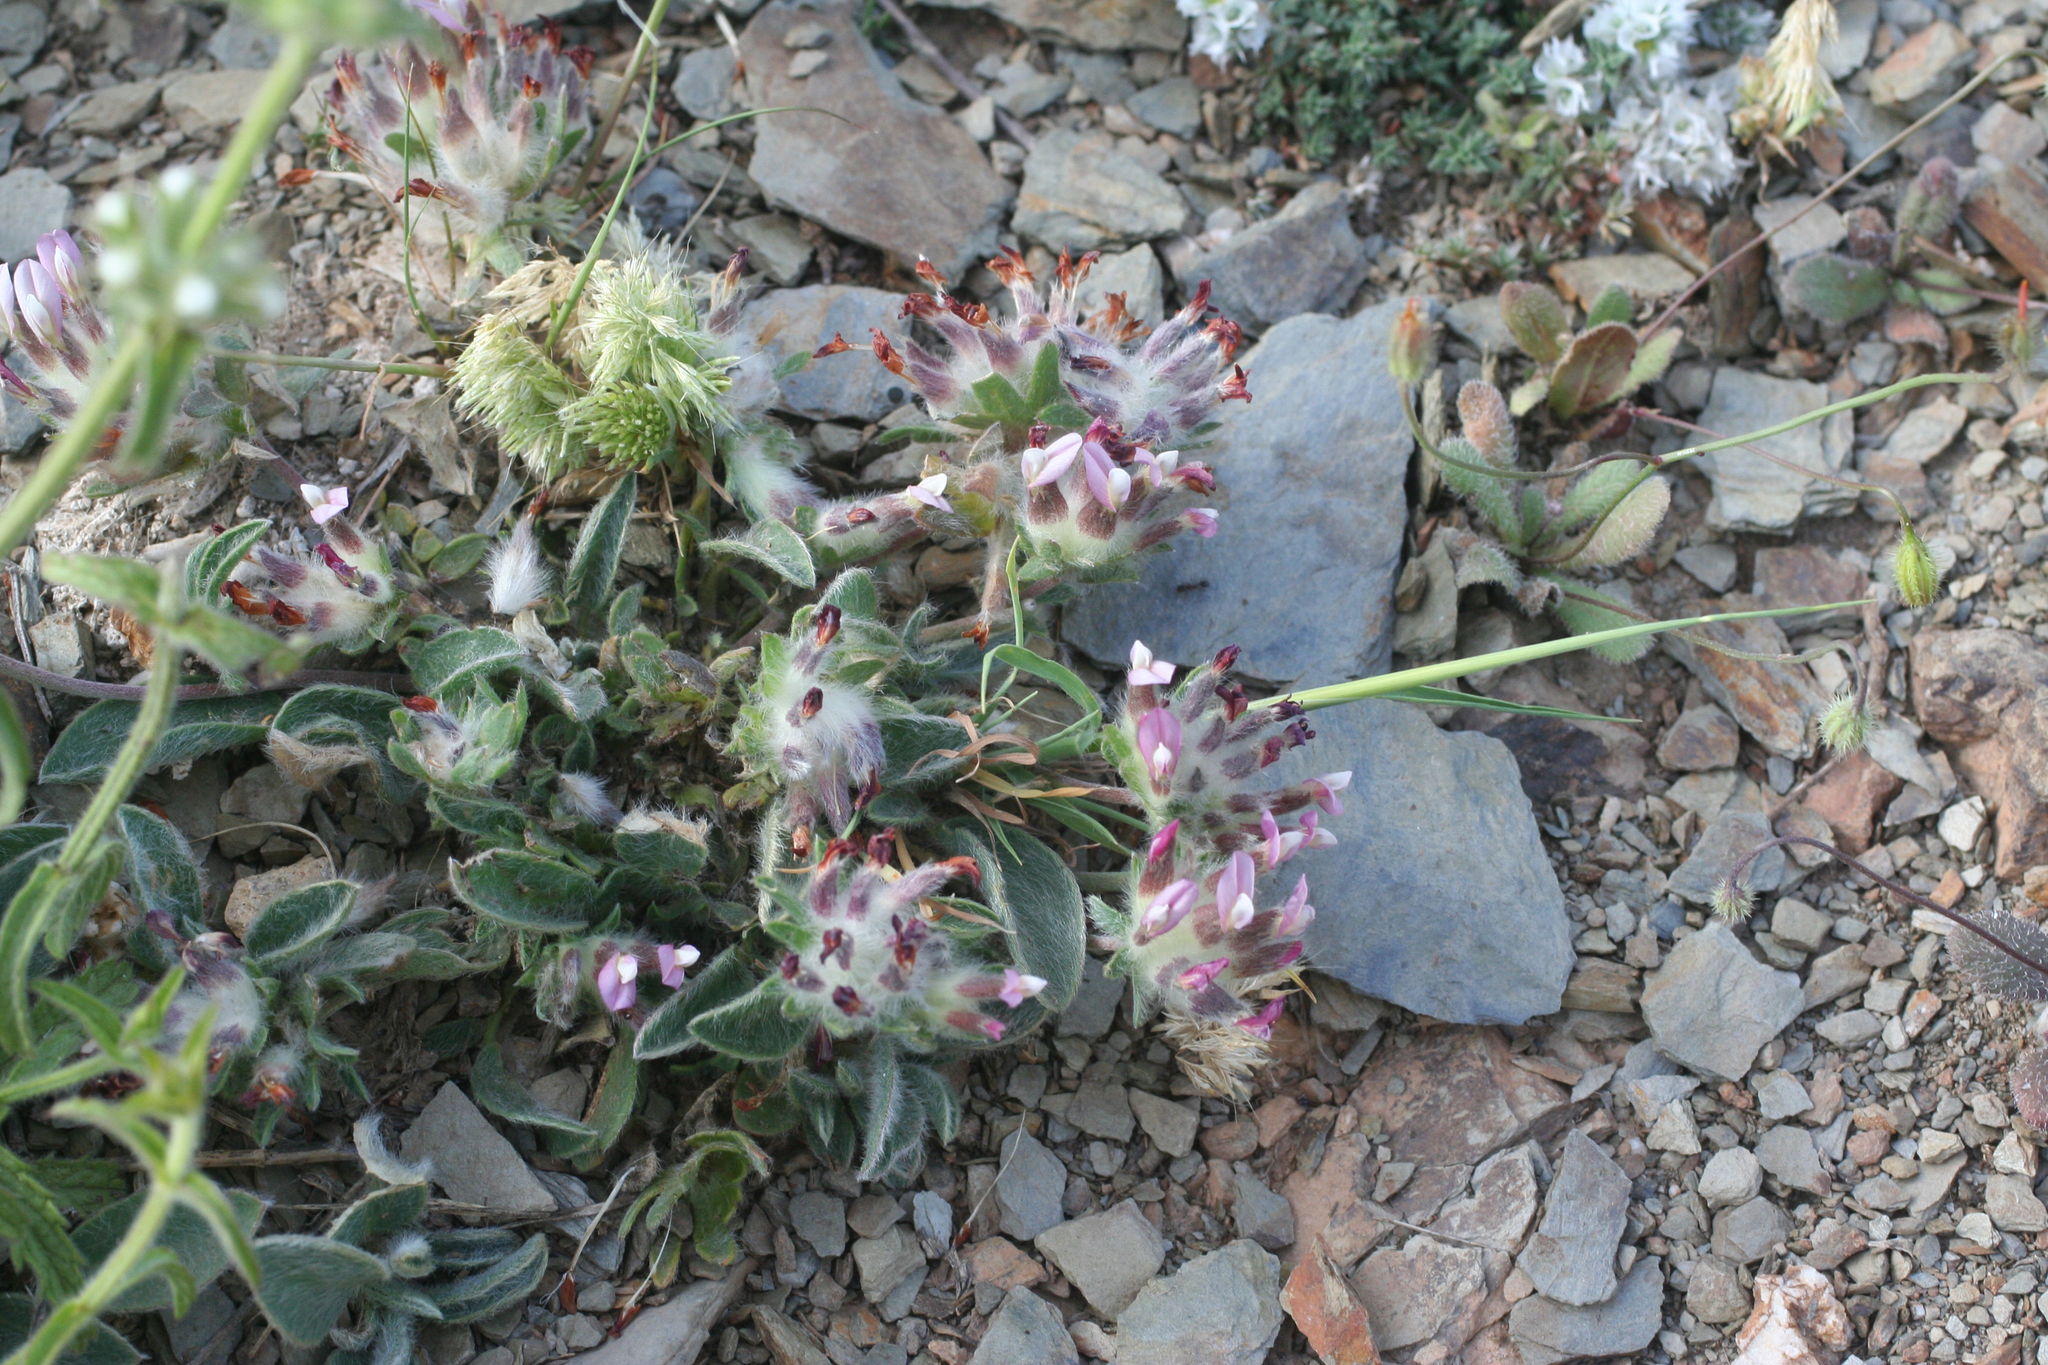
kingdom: Plantae
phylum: Tracheophyta
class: Magnoliopsida
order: Fabales
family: Fabaceae
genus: Anthyllis
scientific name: Anthyllis vulneraria
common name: Kidney vetch
